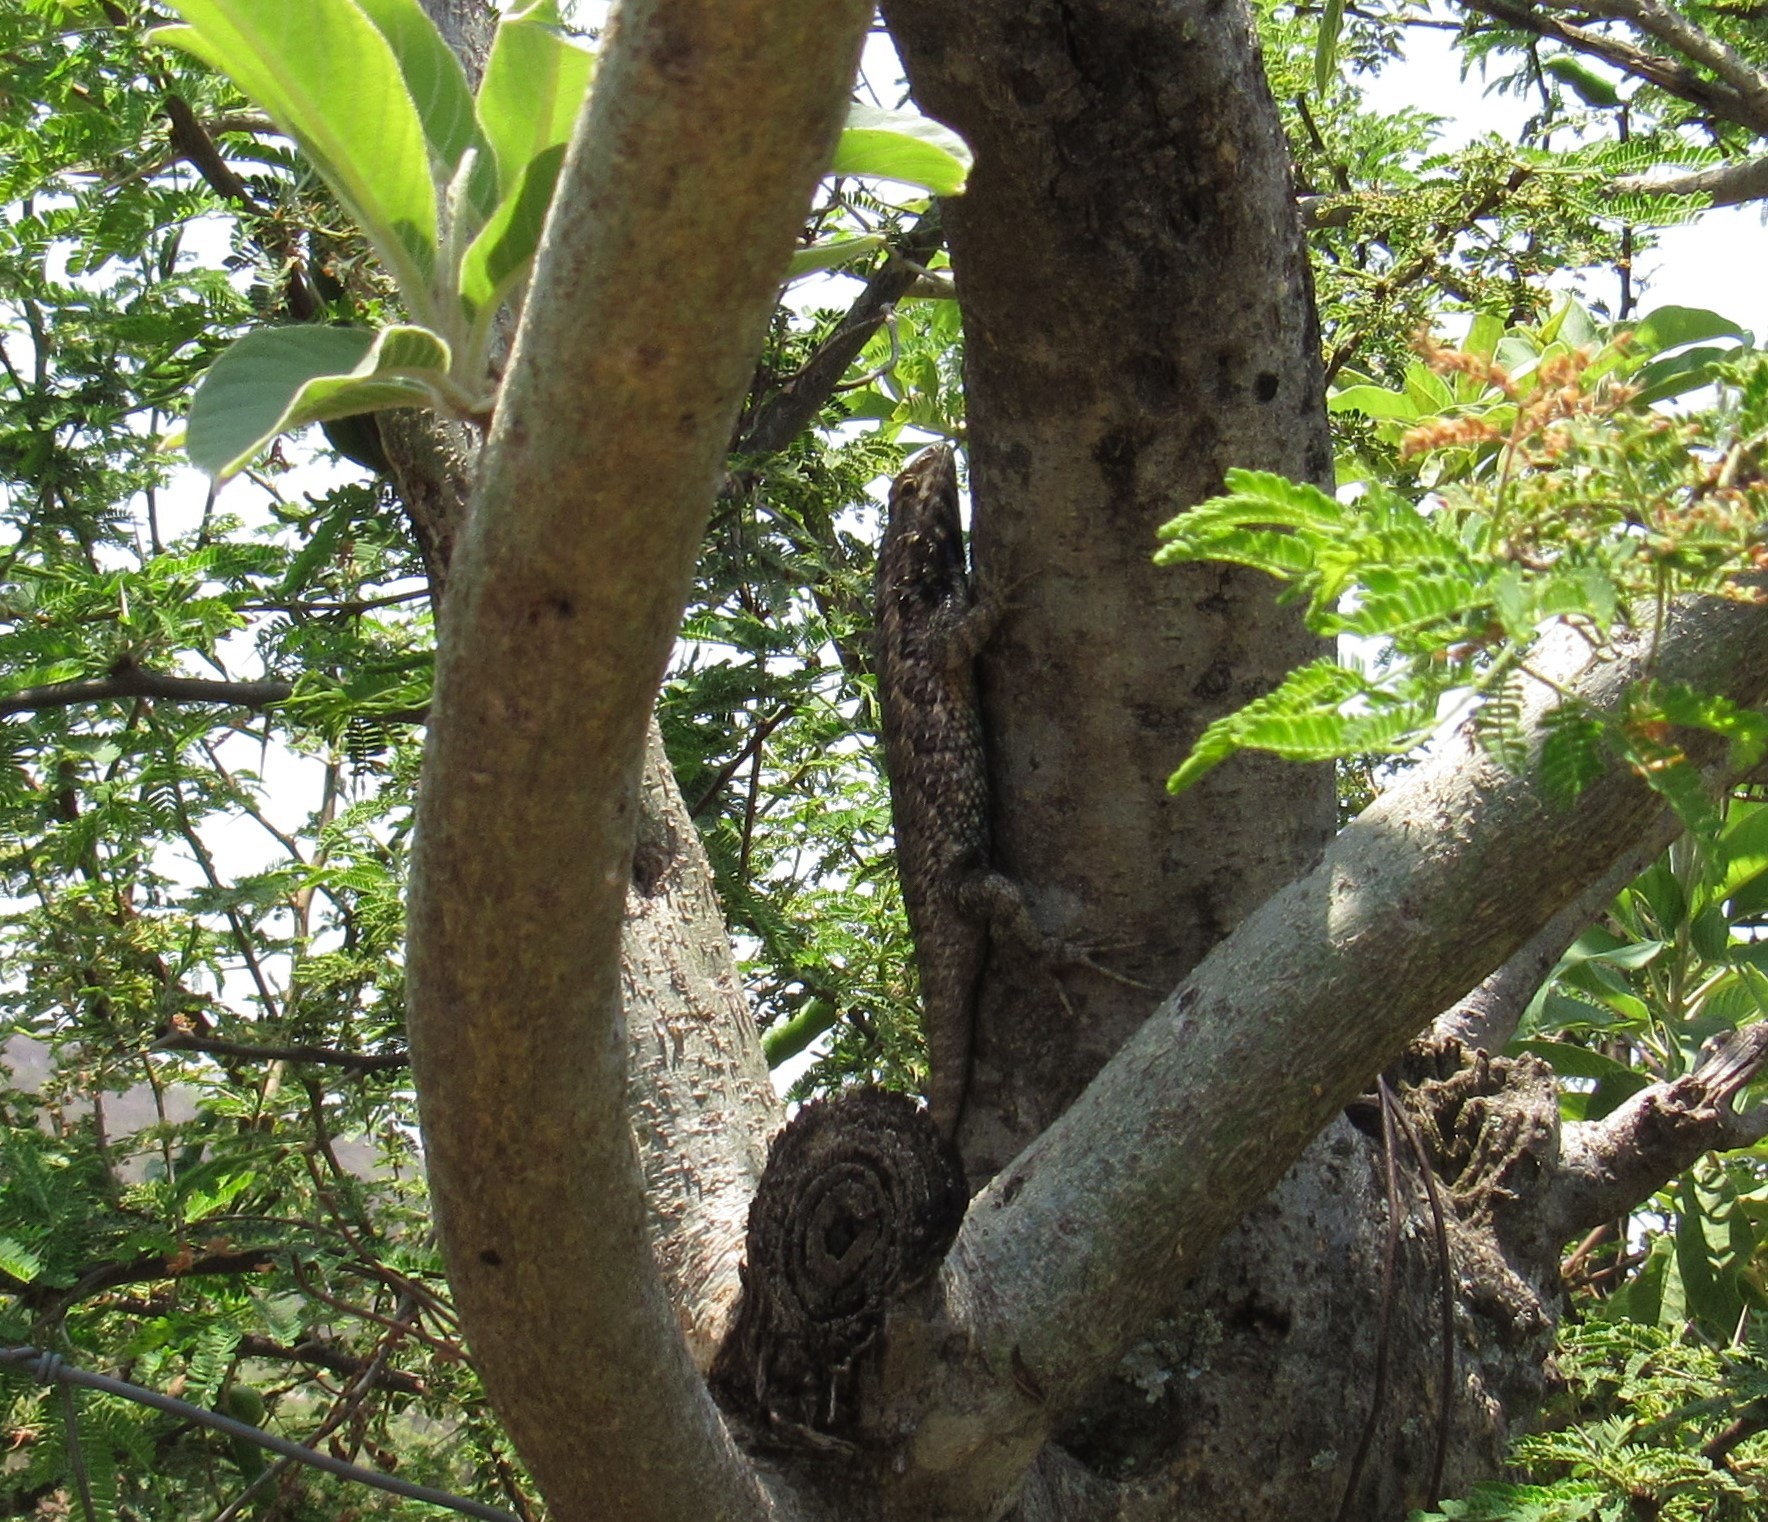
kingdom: Animalia
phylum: Chordata
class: Squamata
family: Phrynosomatidae
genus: Sceloporus
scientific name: Sceloporus spinosus
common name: Blue-spotted spiny lizard [caeruleopunctatus]
